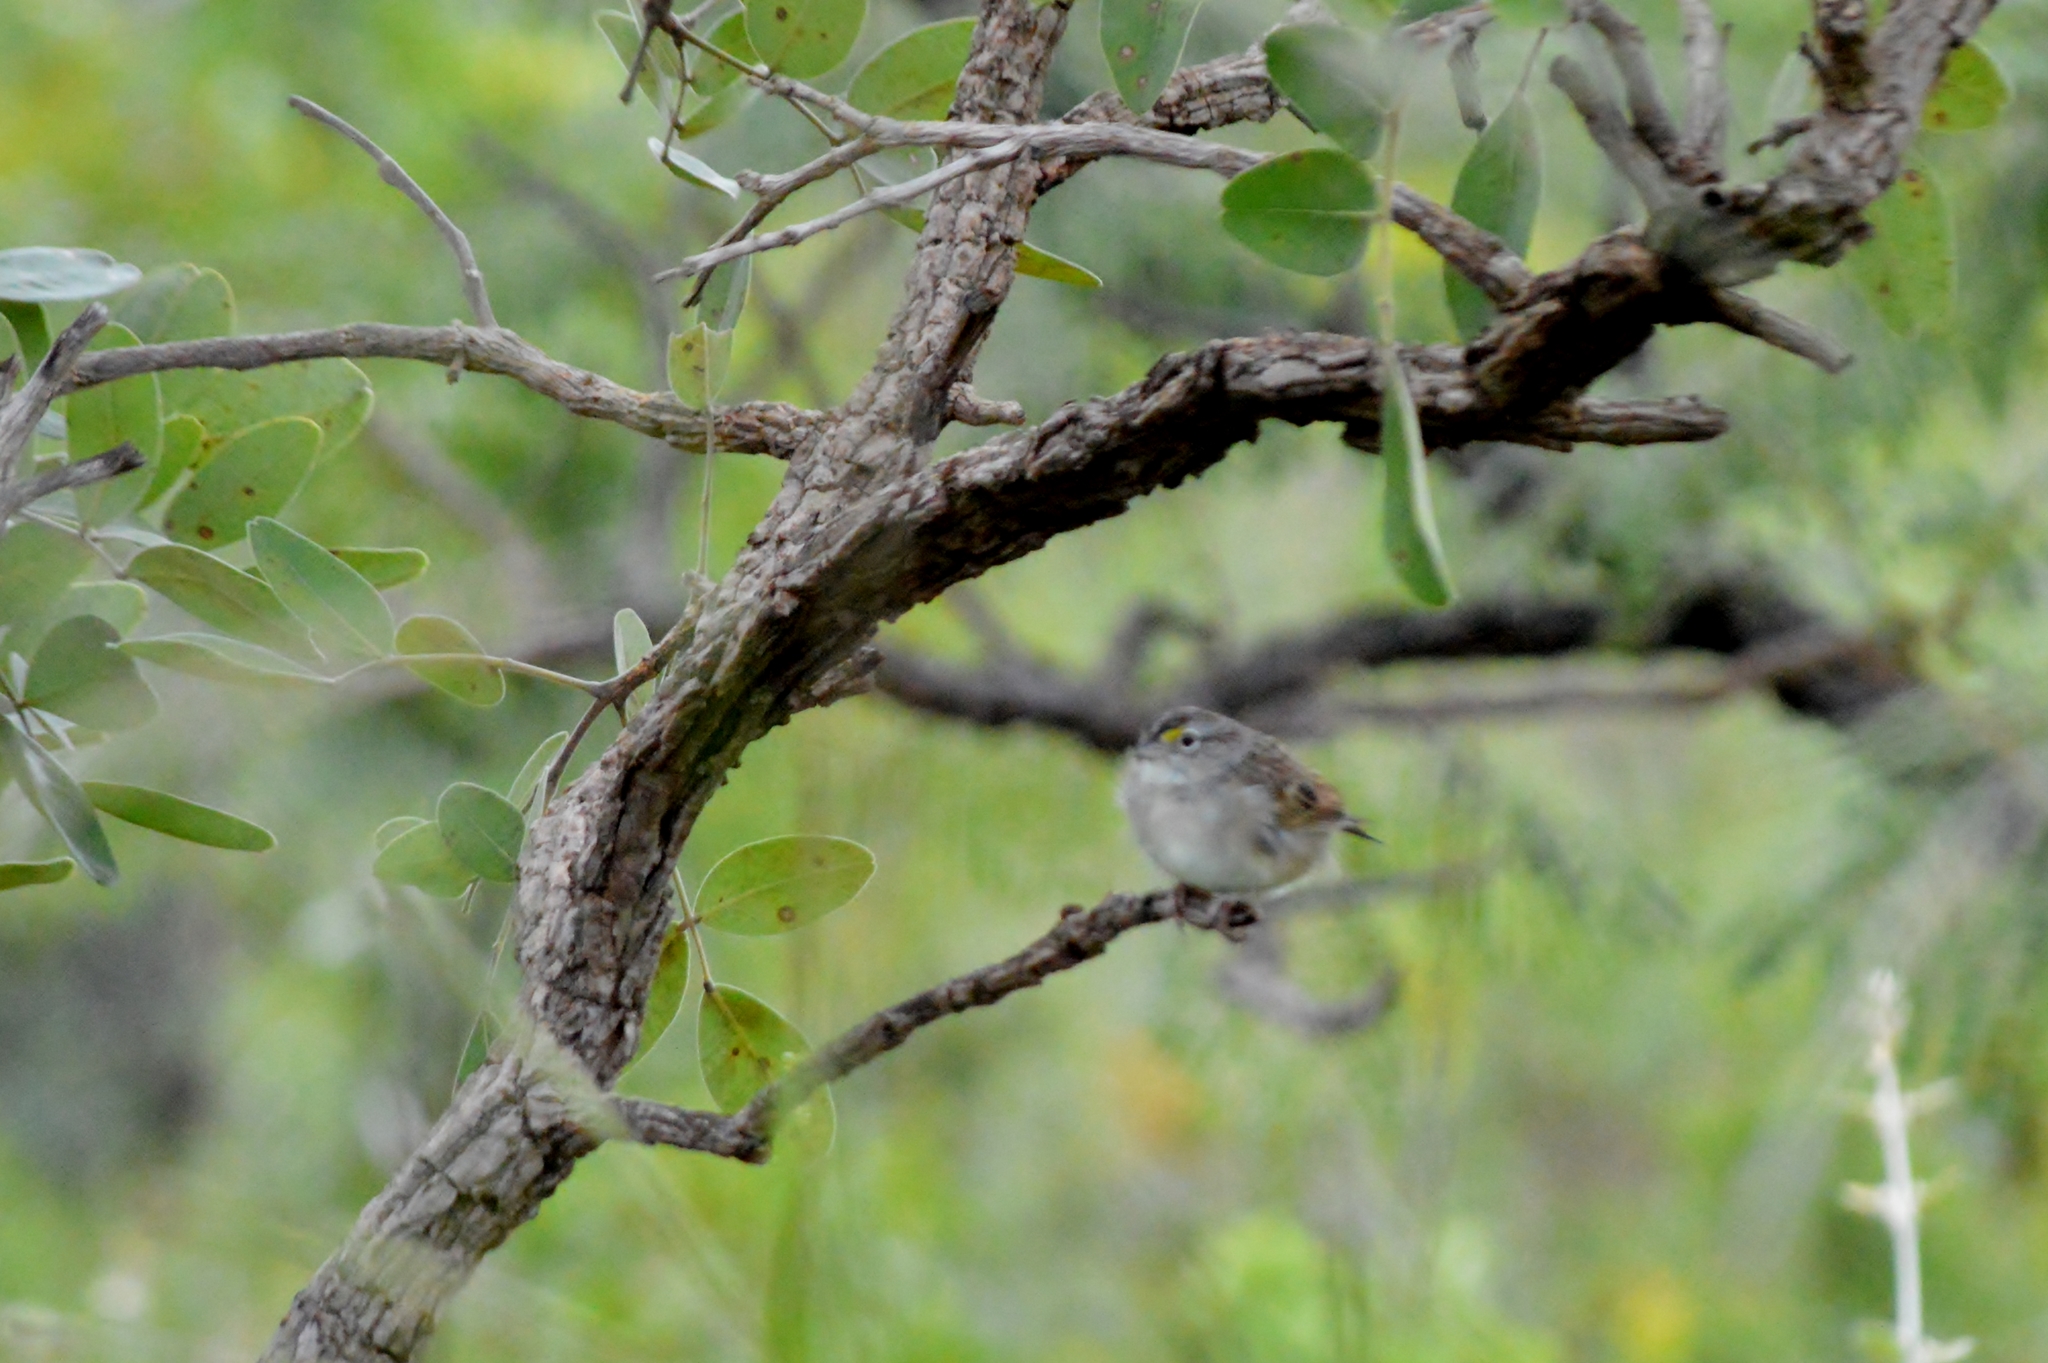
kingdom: Animalia
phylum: Chordata
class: Aves
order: Passeriformes
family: Passerellidae
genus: Ammodramus
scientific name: Ammodramus humeralis
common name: Grassland sparrow
